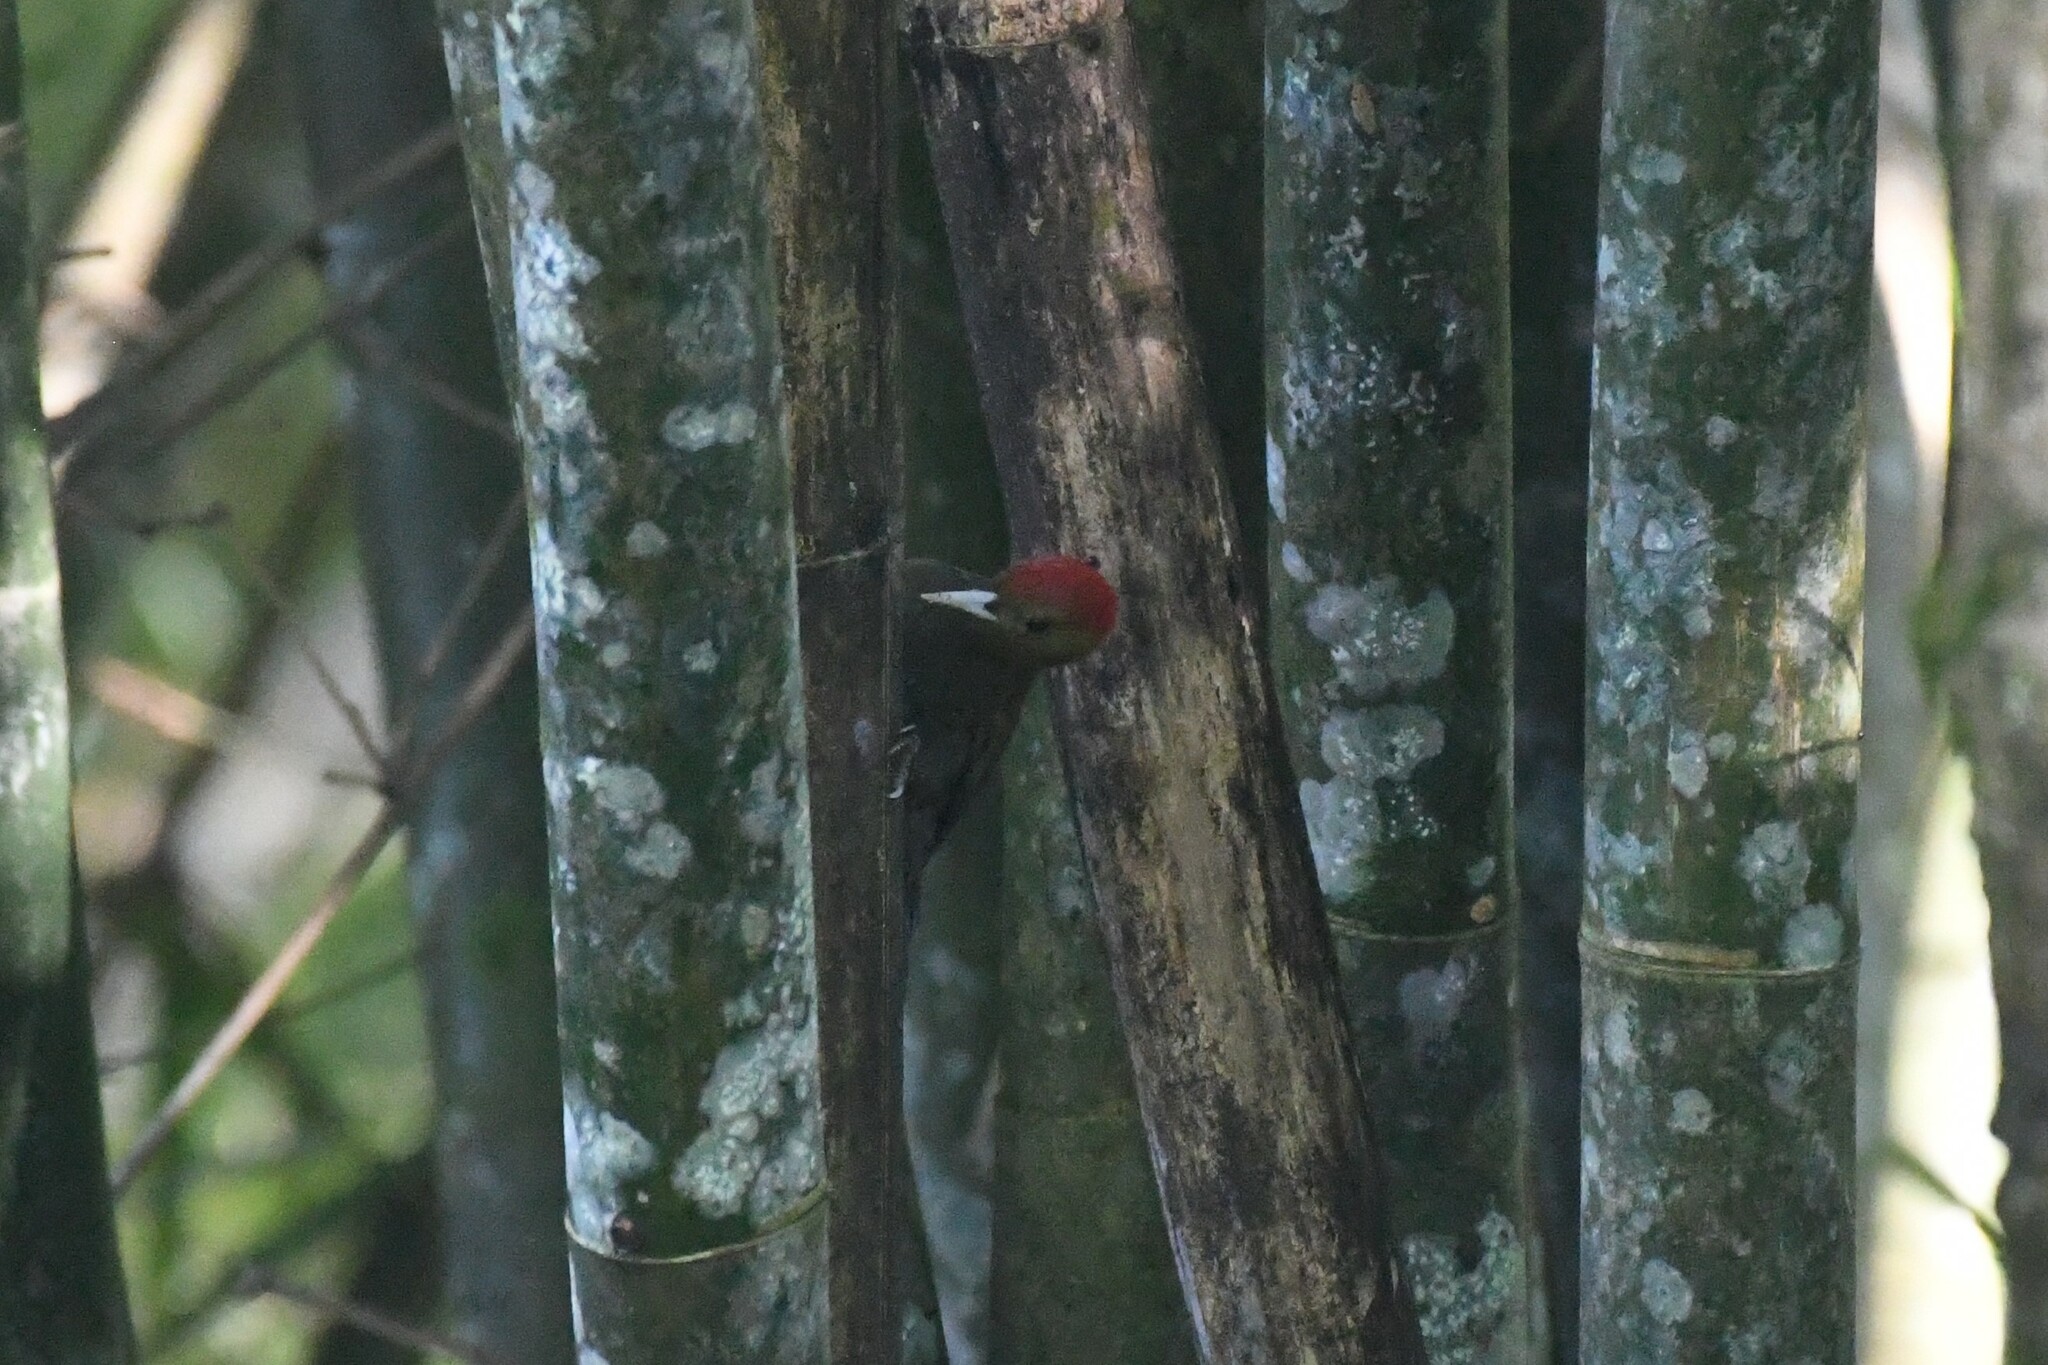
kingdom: Animalia
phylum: Chordata
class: Aves
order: Piciformes
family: Picidae
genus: Gecinulus
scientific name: Gecinulus viridis
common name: Bamboo woodpecker
